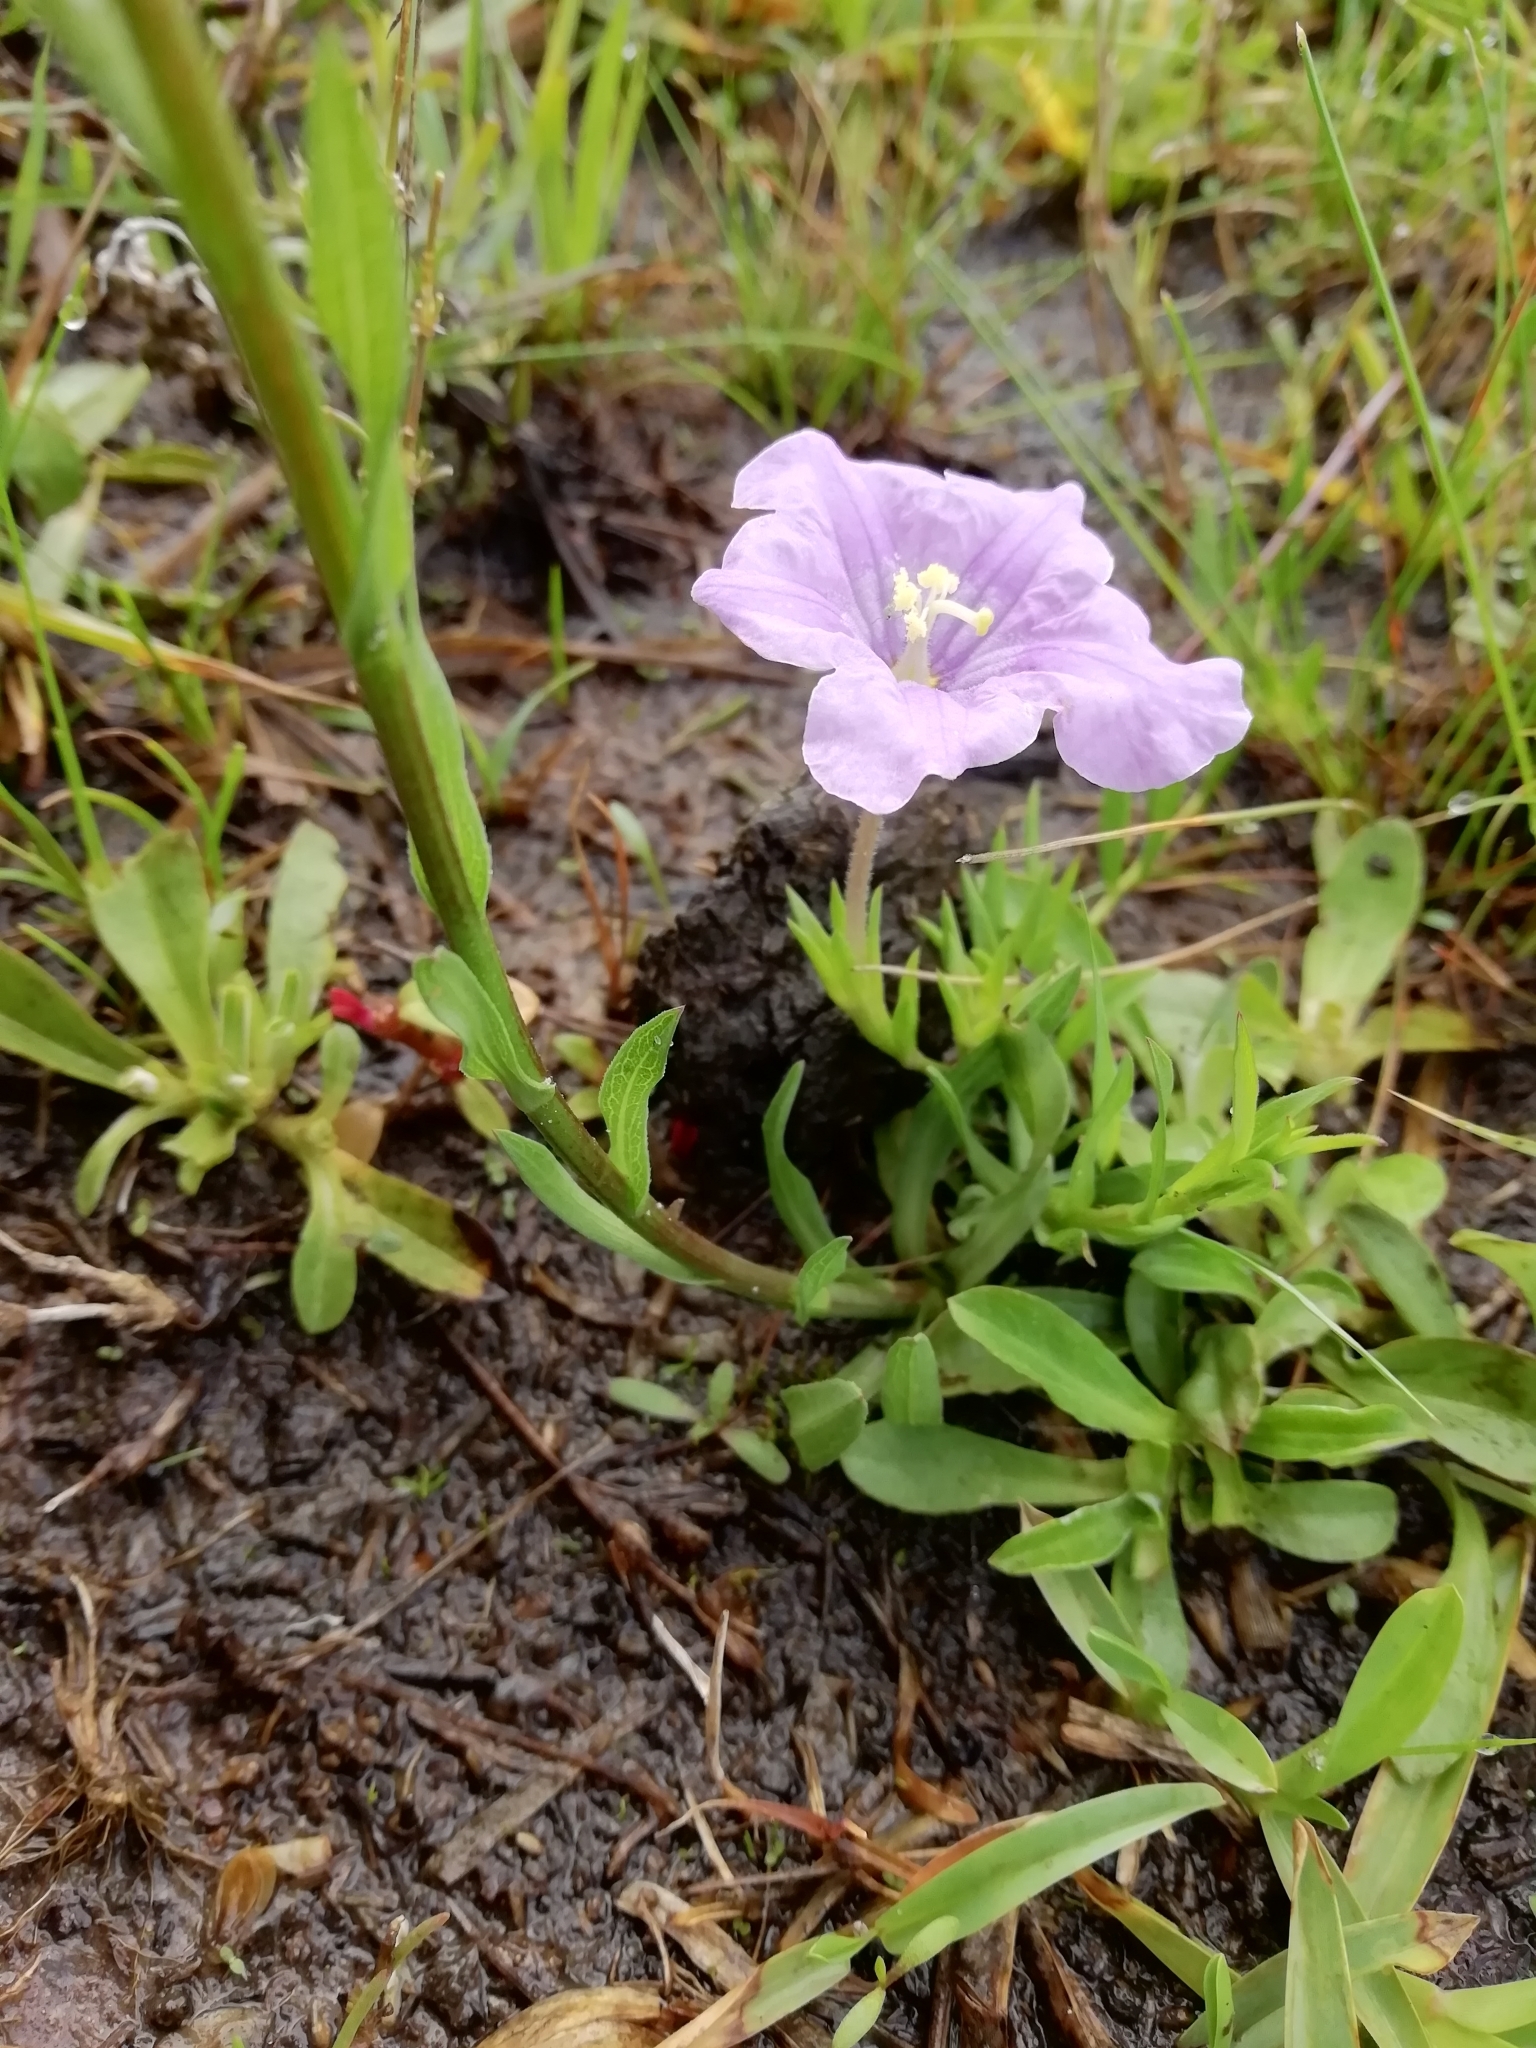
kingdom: Plantae
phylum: Tracheophyta
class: Magnoliopsida
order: Solanales
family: Solanaceae
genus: Nierembergia
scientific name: Nierembergia aristata
